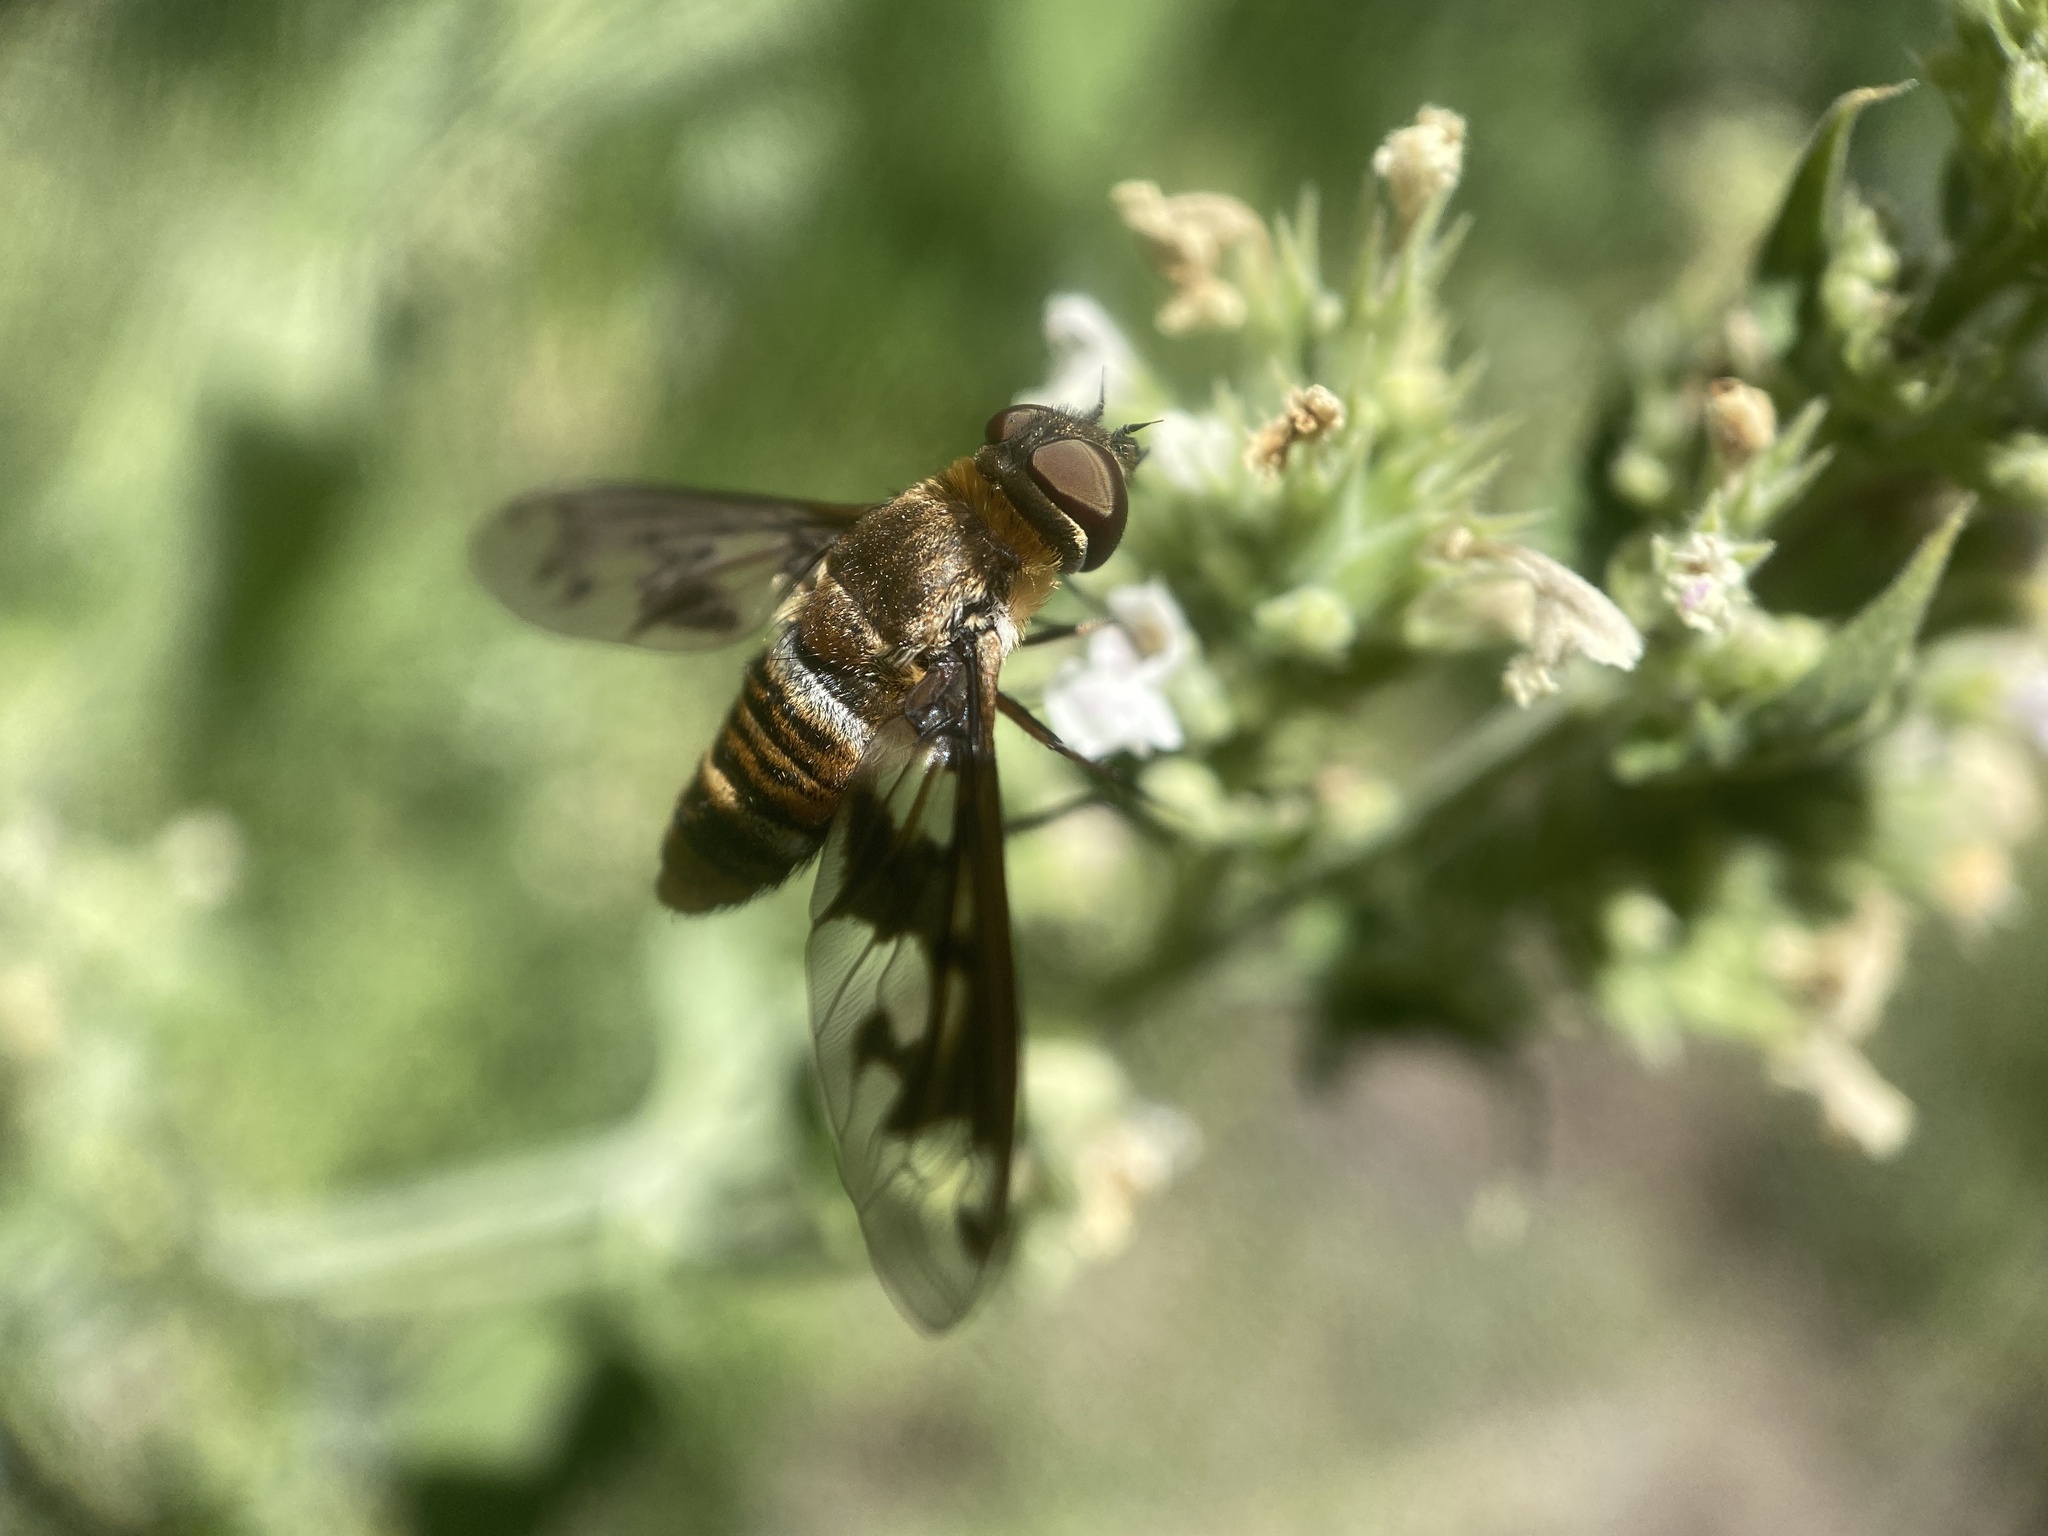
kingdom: Animalia
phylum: Arthropoda
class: Insecta
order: Diptera
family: Bombyliidae
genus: Exoprosopa
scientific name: Exoprosopa fascipennis
